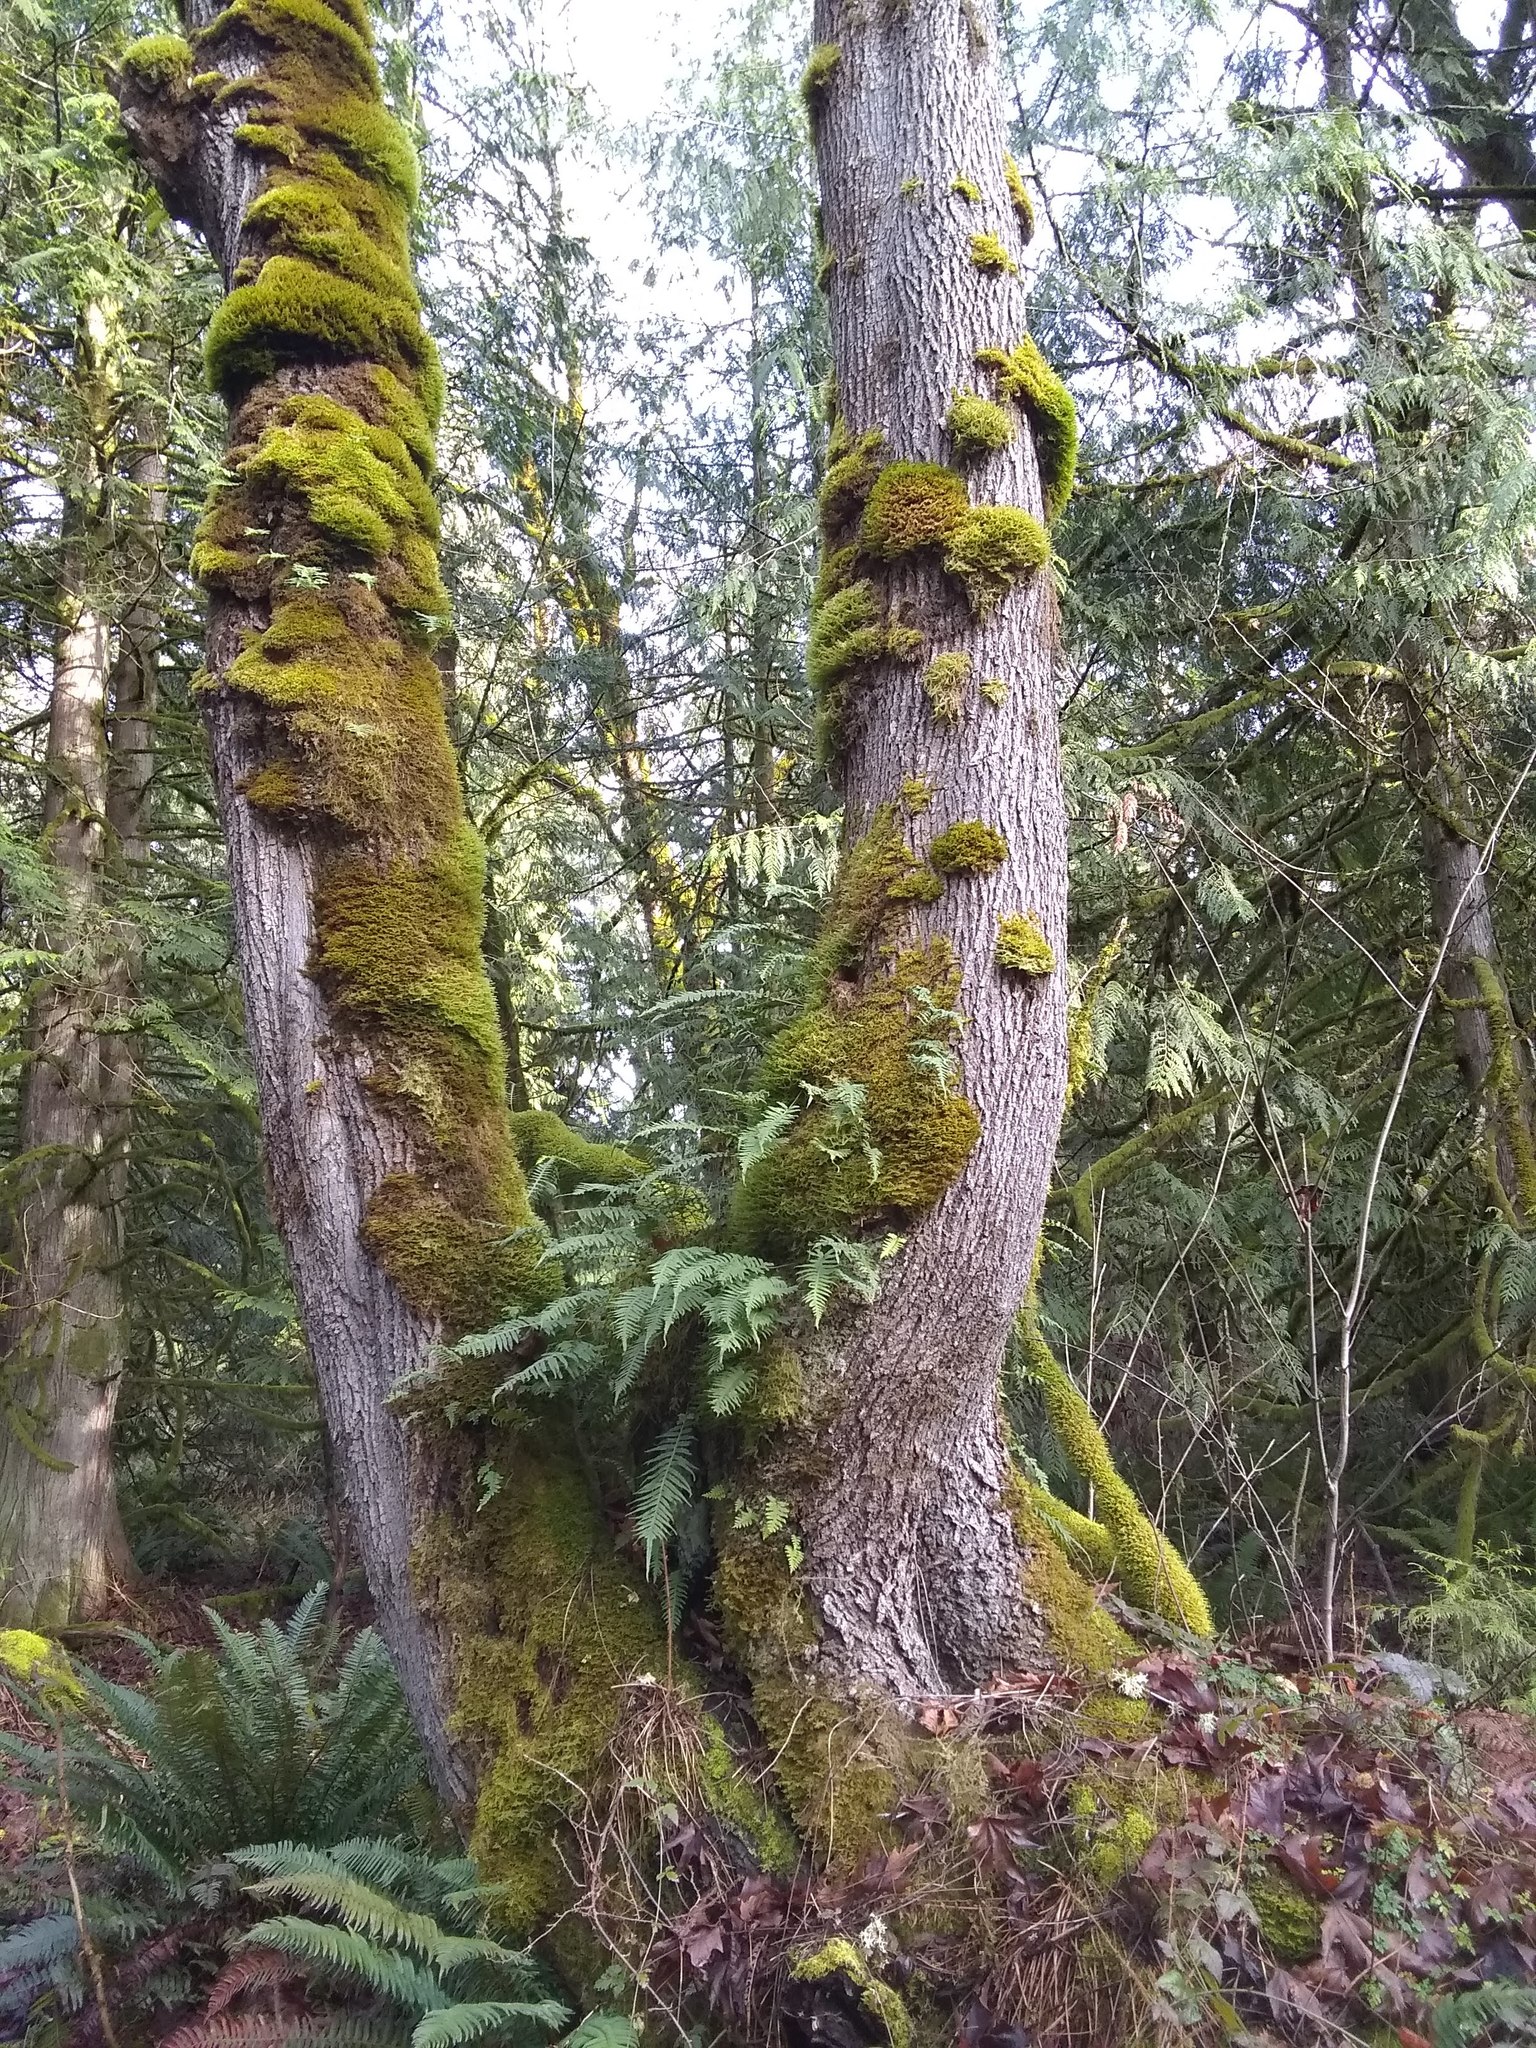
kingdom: Plantae
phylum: Tracheophyta
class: Polypodiopsida
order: Polypodiales
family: Polypodiaceae
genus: Polypodium
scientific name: Polypodium glycyrrhiza
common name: Licorice fern
